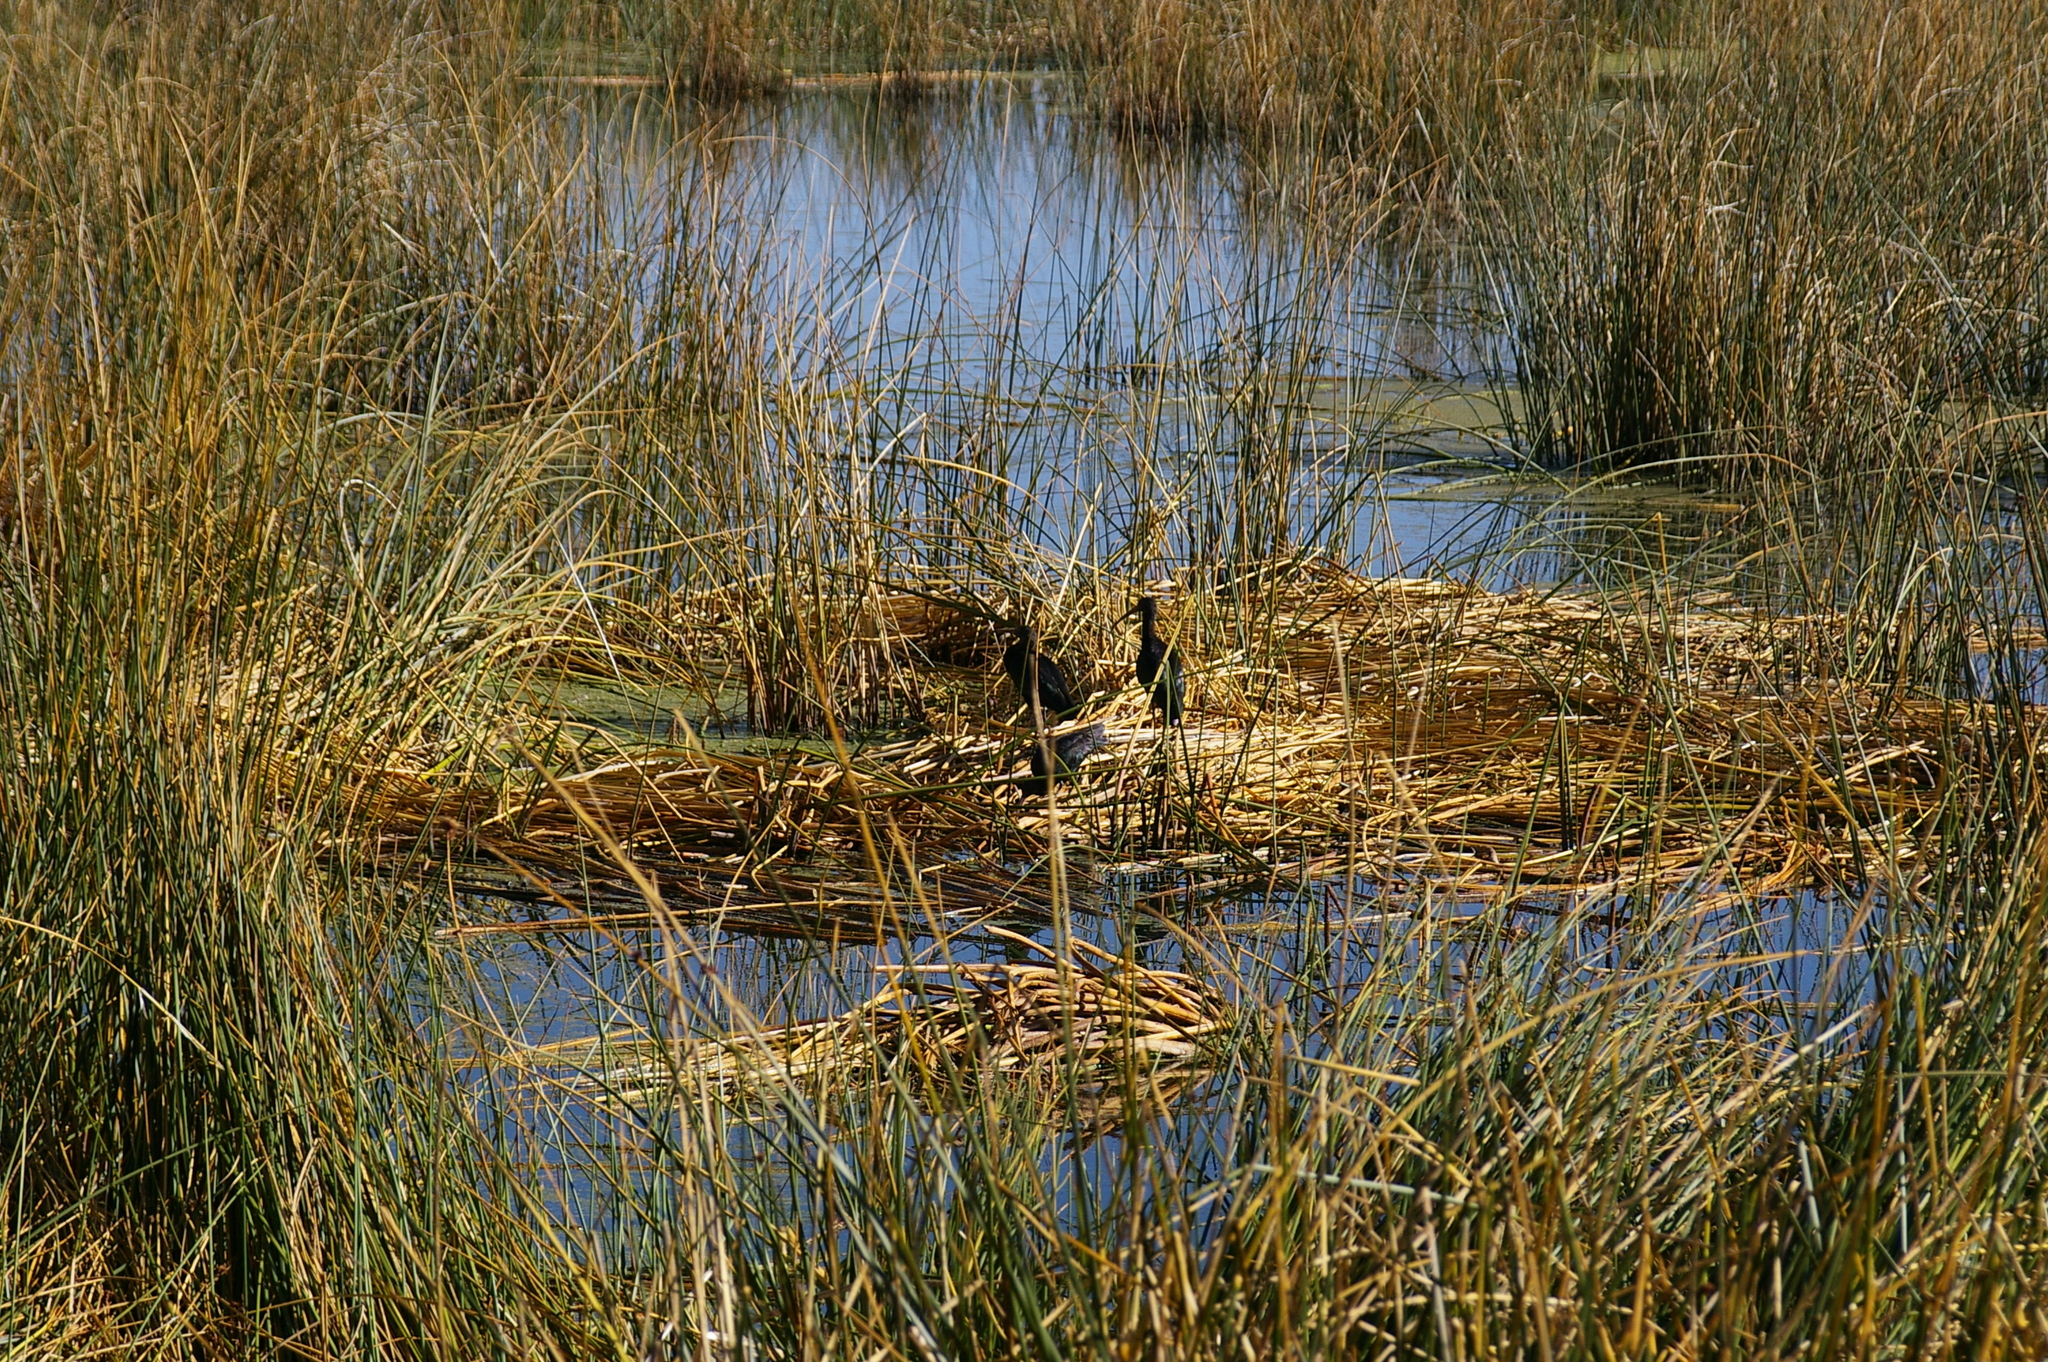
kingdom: Animalia
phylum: Chordata
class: Aves
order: Pelecaniformes
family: Threskiornithidae
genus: Plegadis
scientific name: Plegadis ridgwayi
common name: Puna ibis
